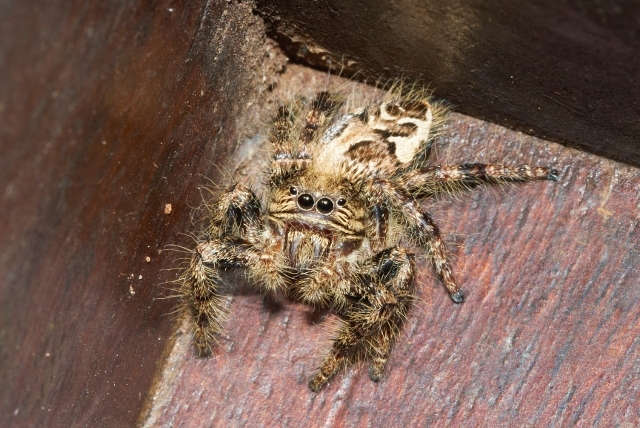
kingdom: Animalia
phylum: Arthropoda
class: Arachnida
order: Araneae
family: Salticidae
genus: Hyllus
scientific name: Hyllus treleaveni
